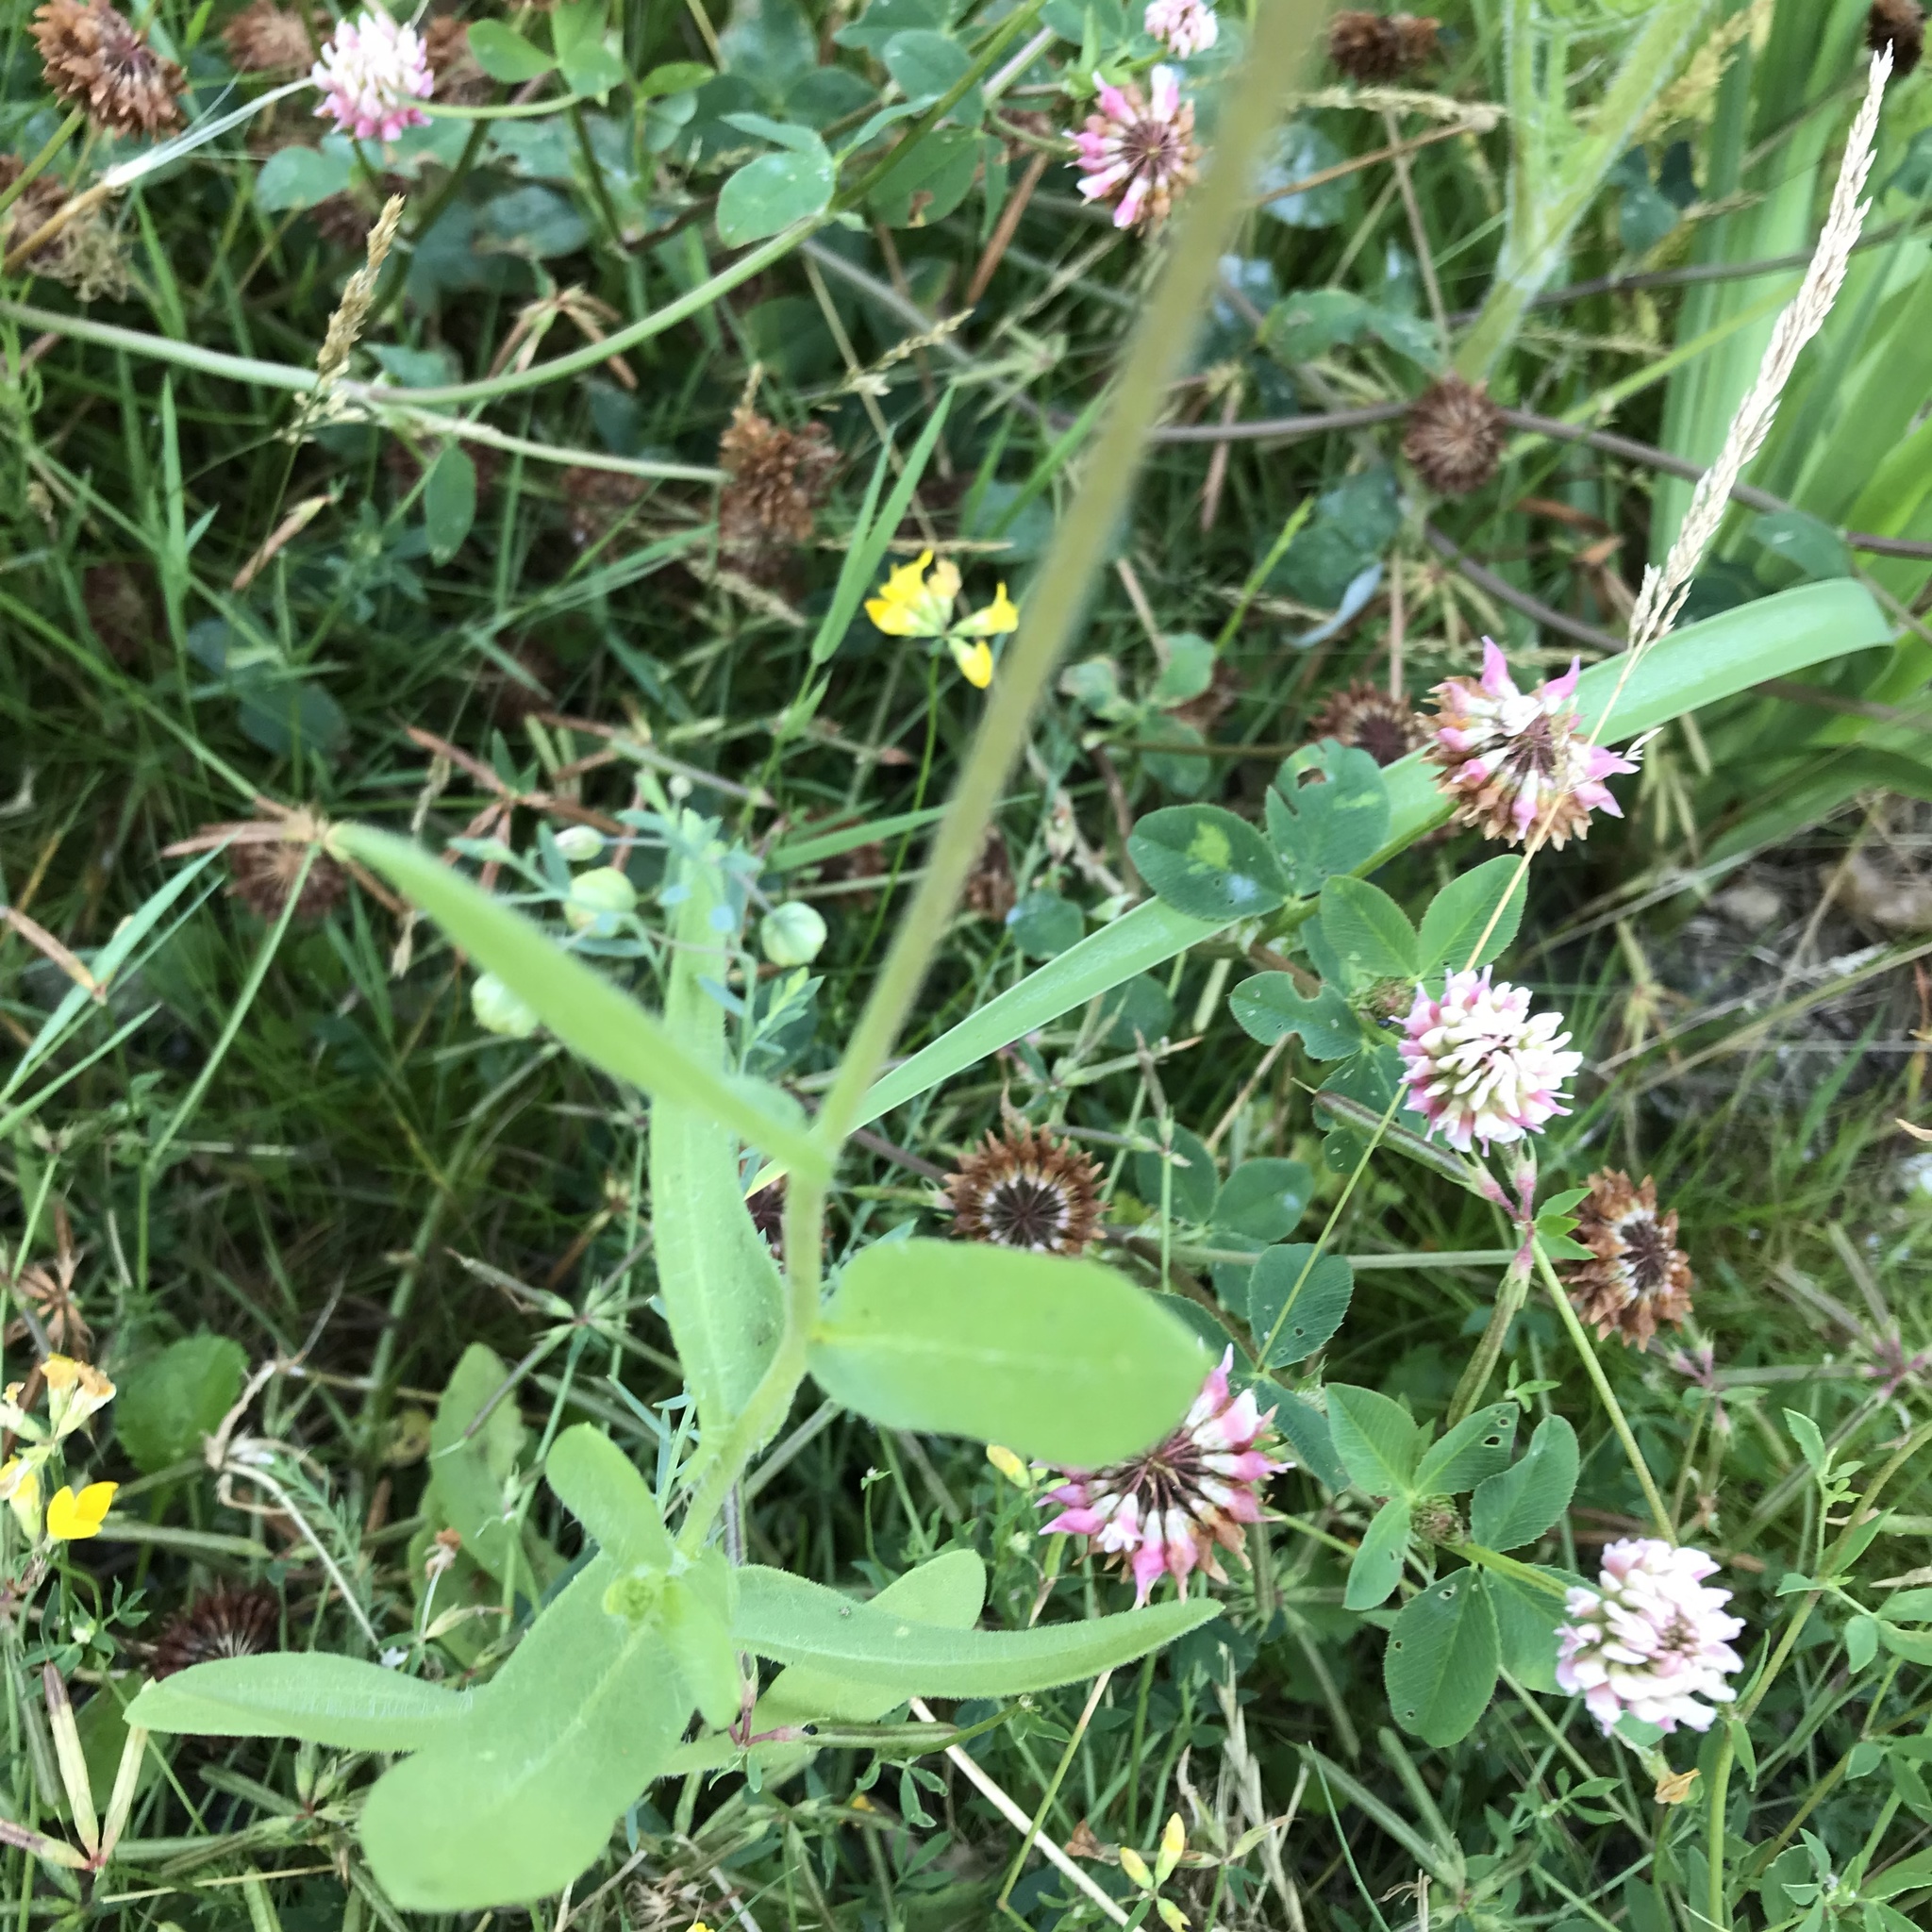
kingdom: Plantae
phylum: Tracheophyta
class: Magnoliopsida
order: Asterales
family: Asteraceae
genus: Gaillardia
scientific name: Gaillardia pulchella
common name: Firewheel
